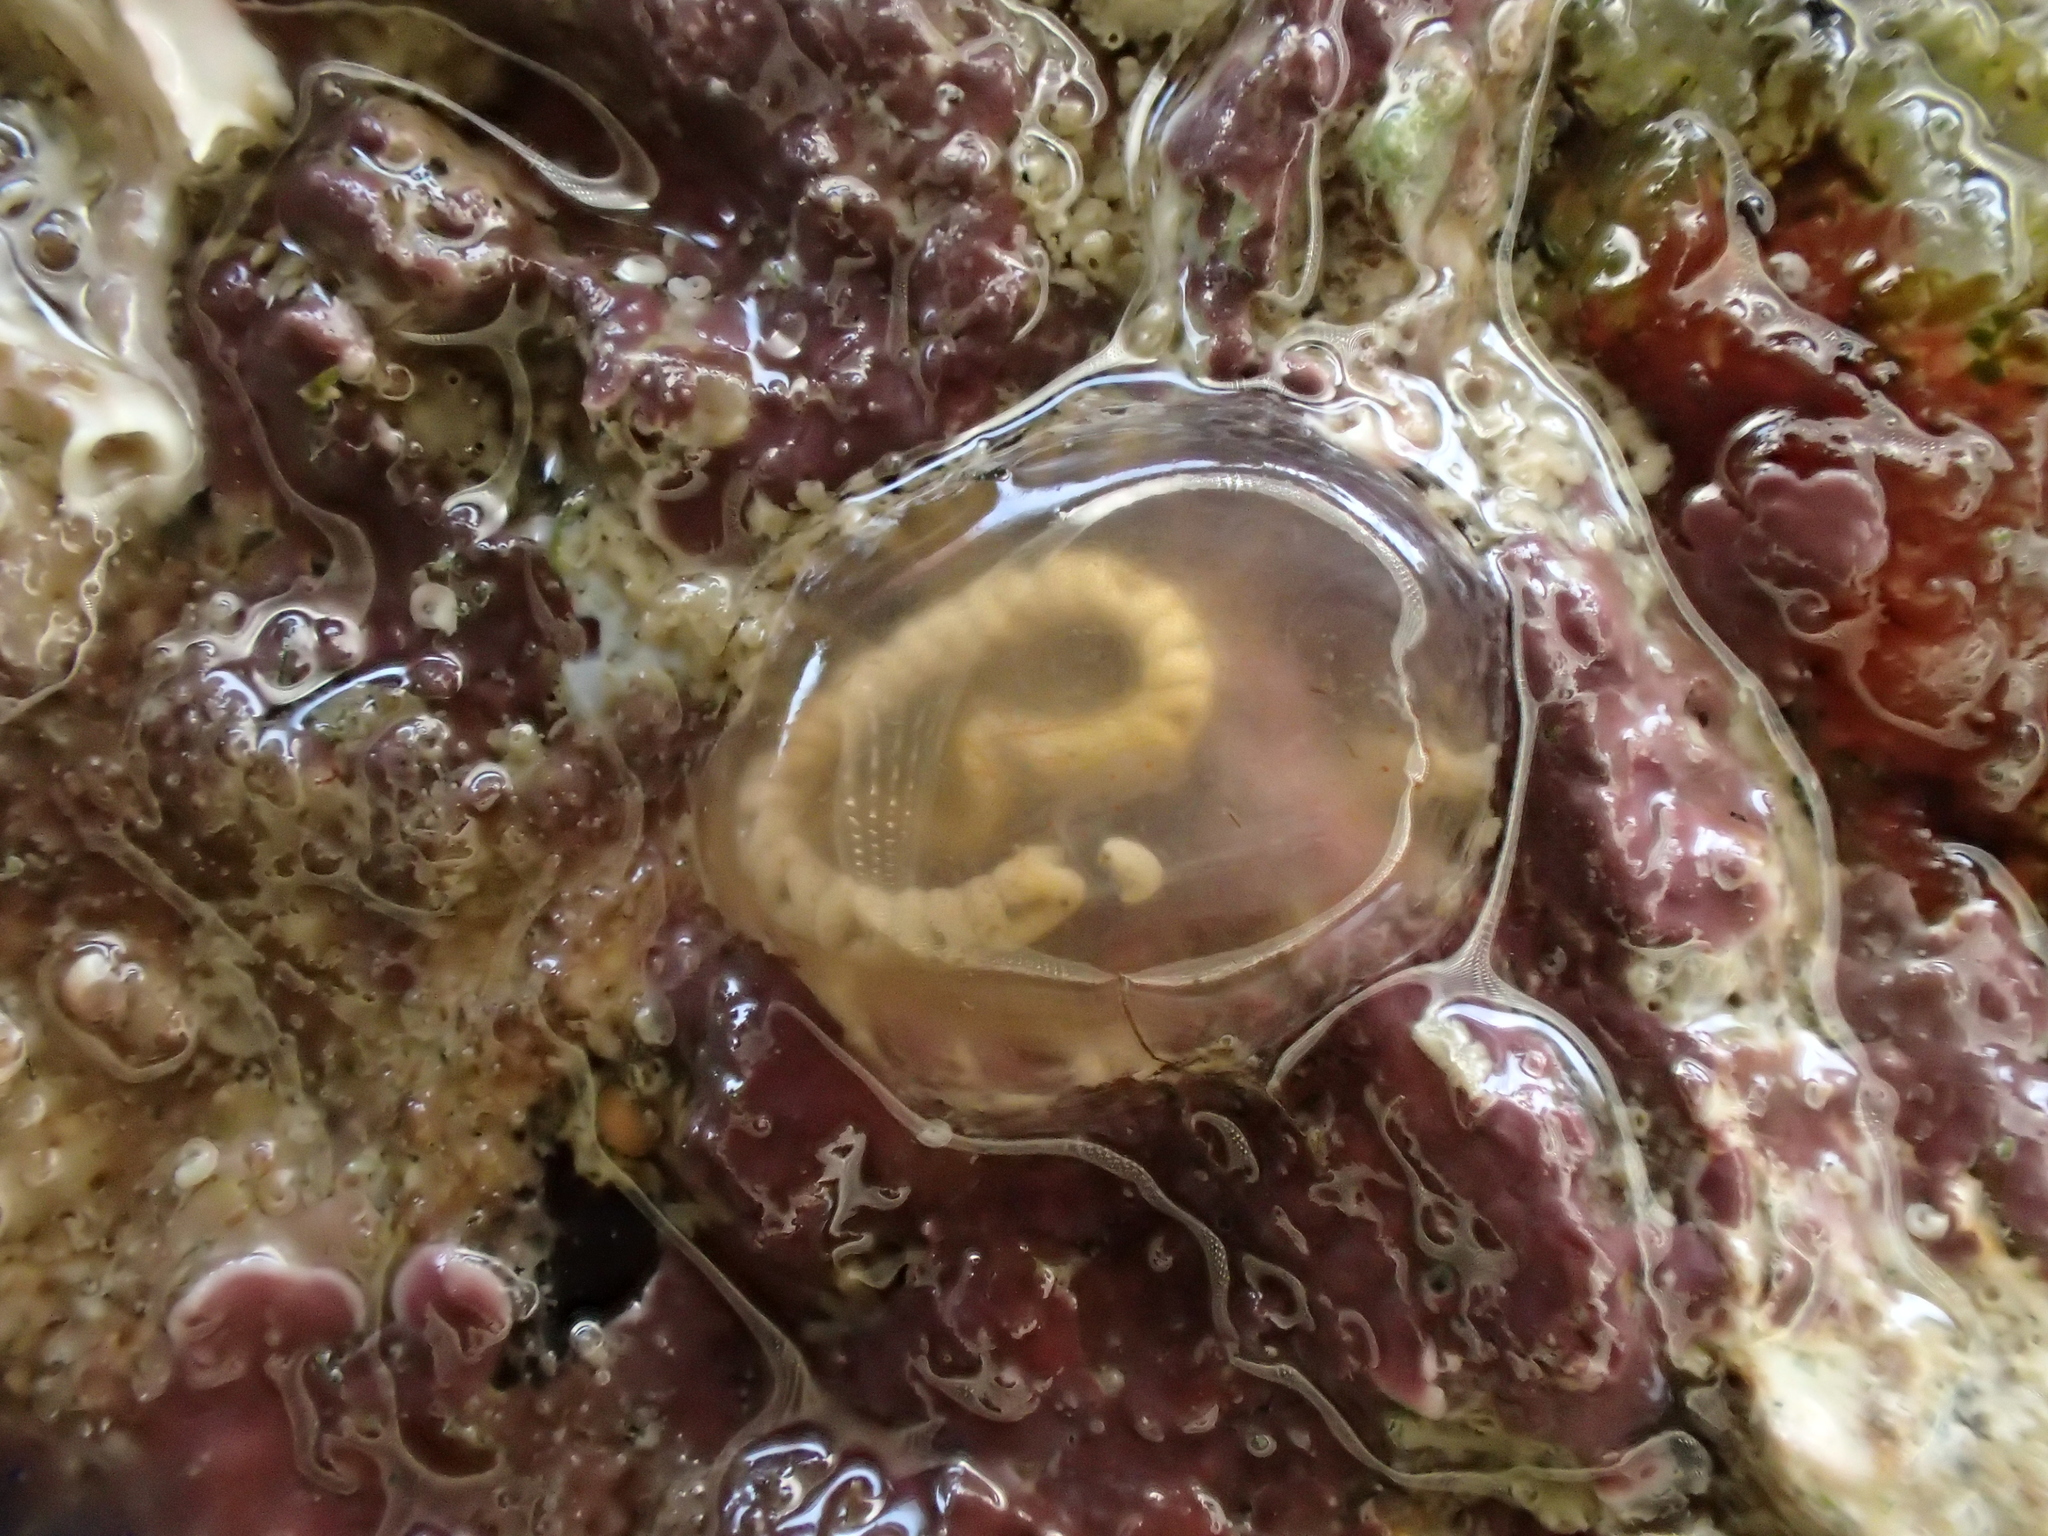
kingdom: Animalia
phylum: Chordata
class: Ascidiacea
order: Phlebobranchia
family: Corellidae
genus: Corella
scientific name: Corella eumyota
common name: Orange-tipped sea squirt
